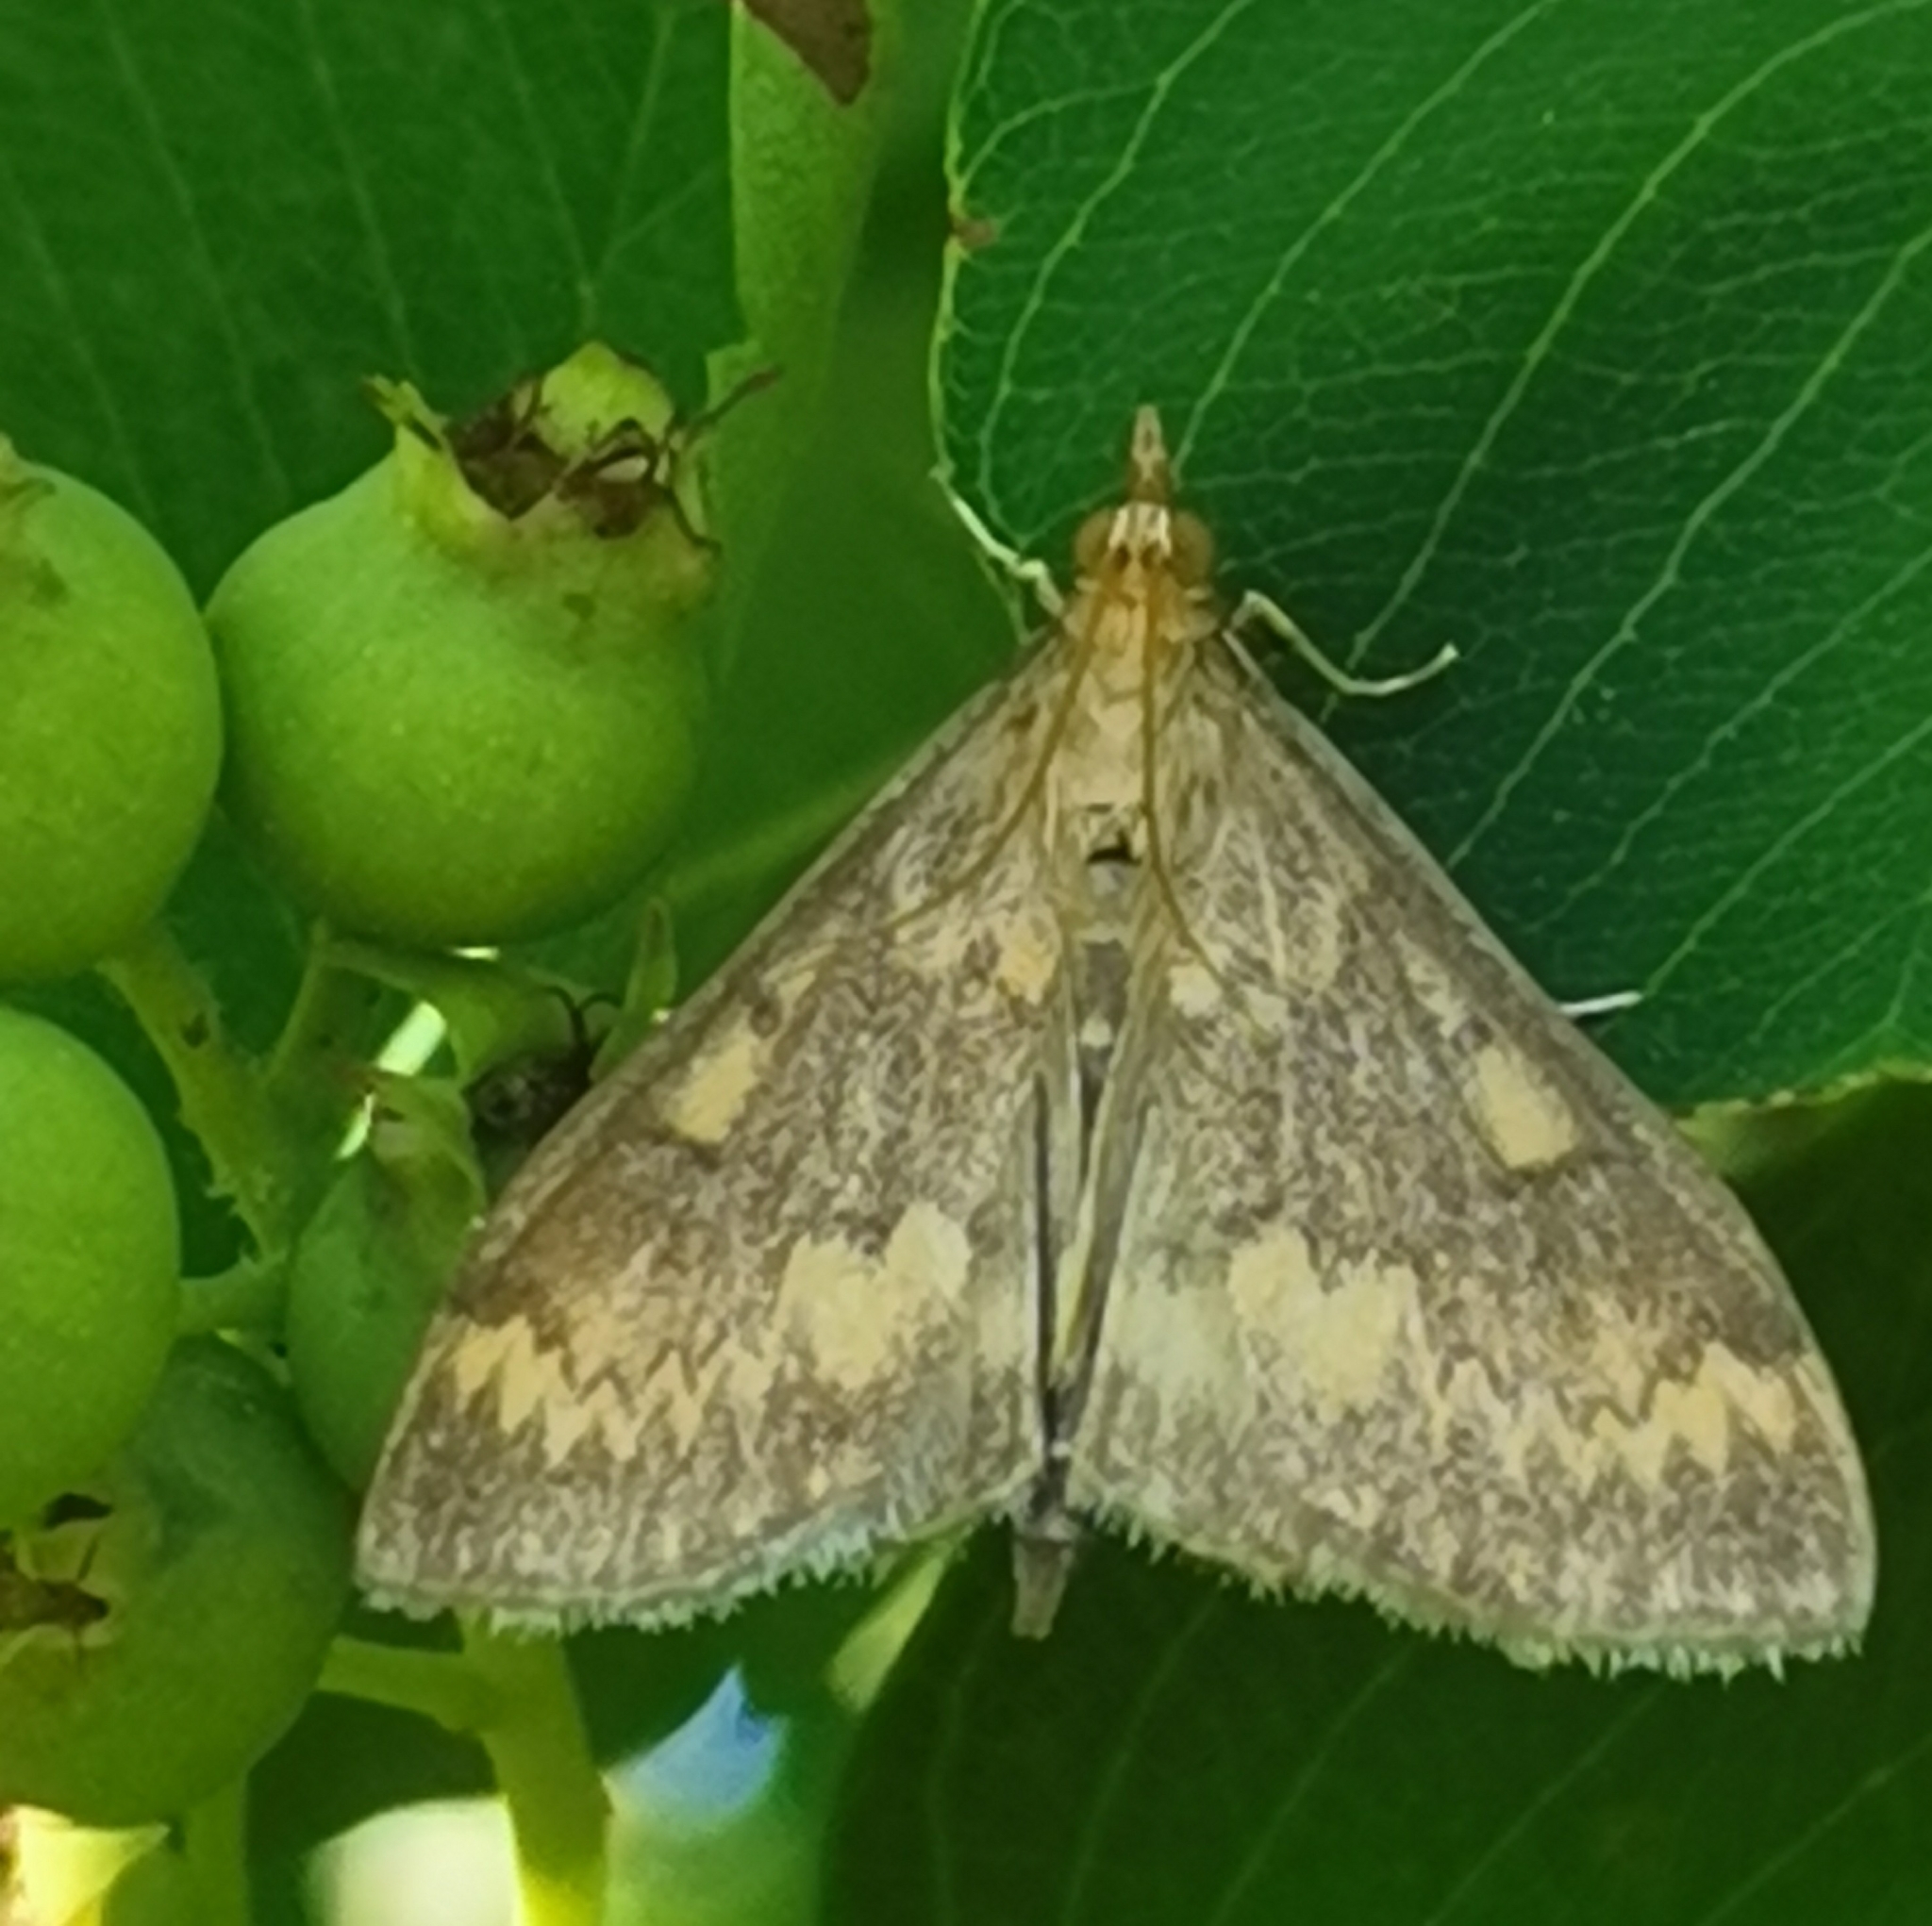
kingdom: Animalia
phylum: Arthropoda
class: Insecta
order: Lepidoptera
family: Crambidae
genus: Ostrinia
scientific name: Ostrinia nubilalis
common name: European corn borer
